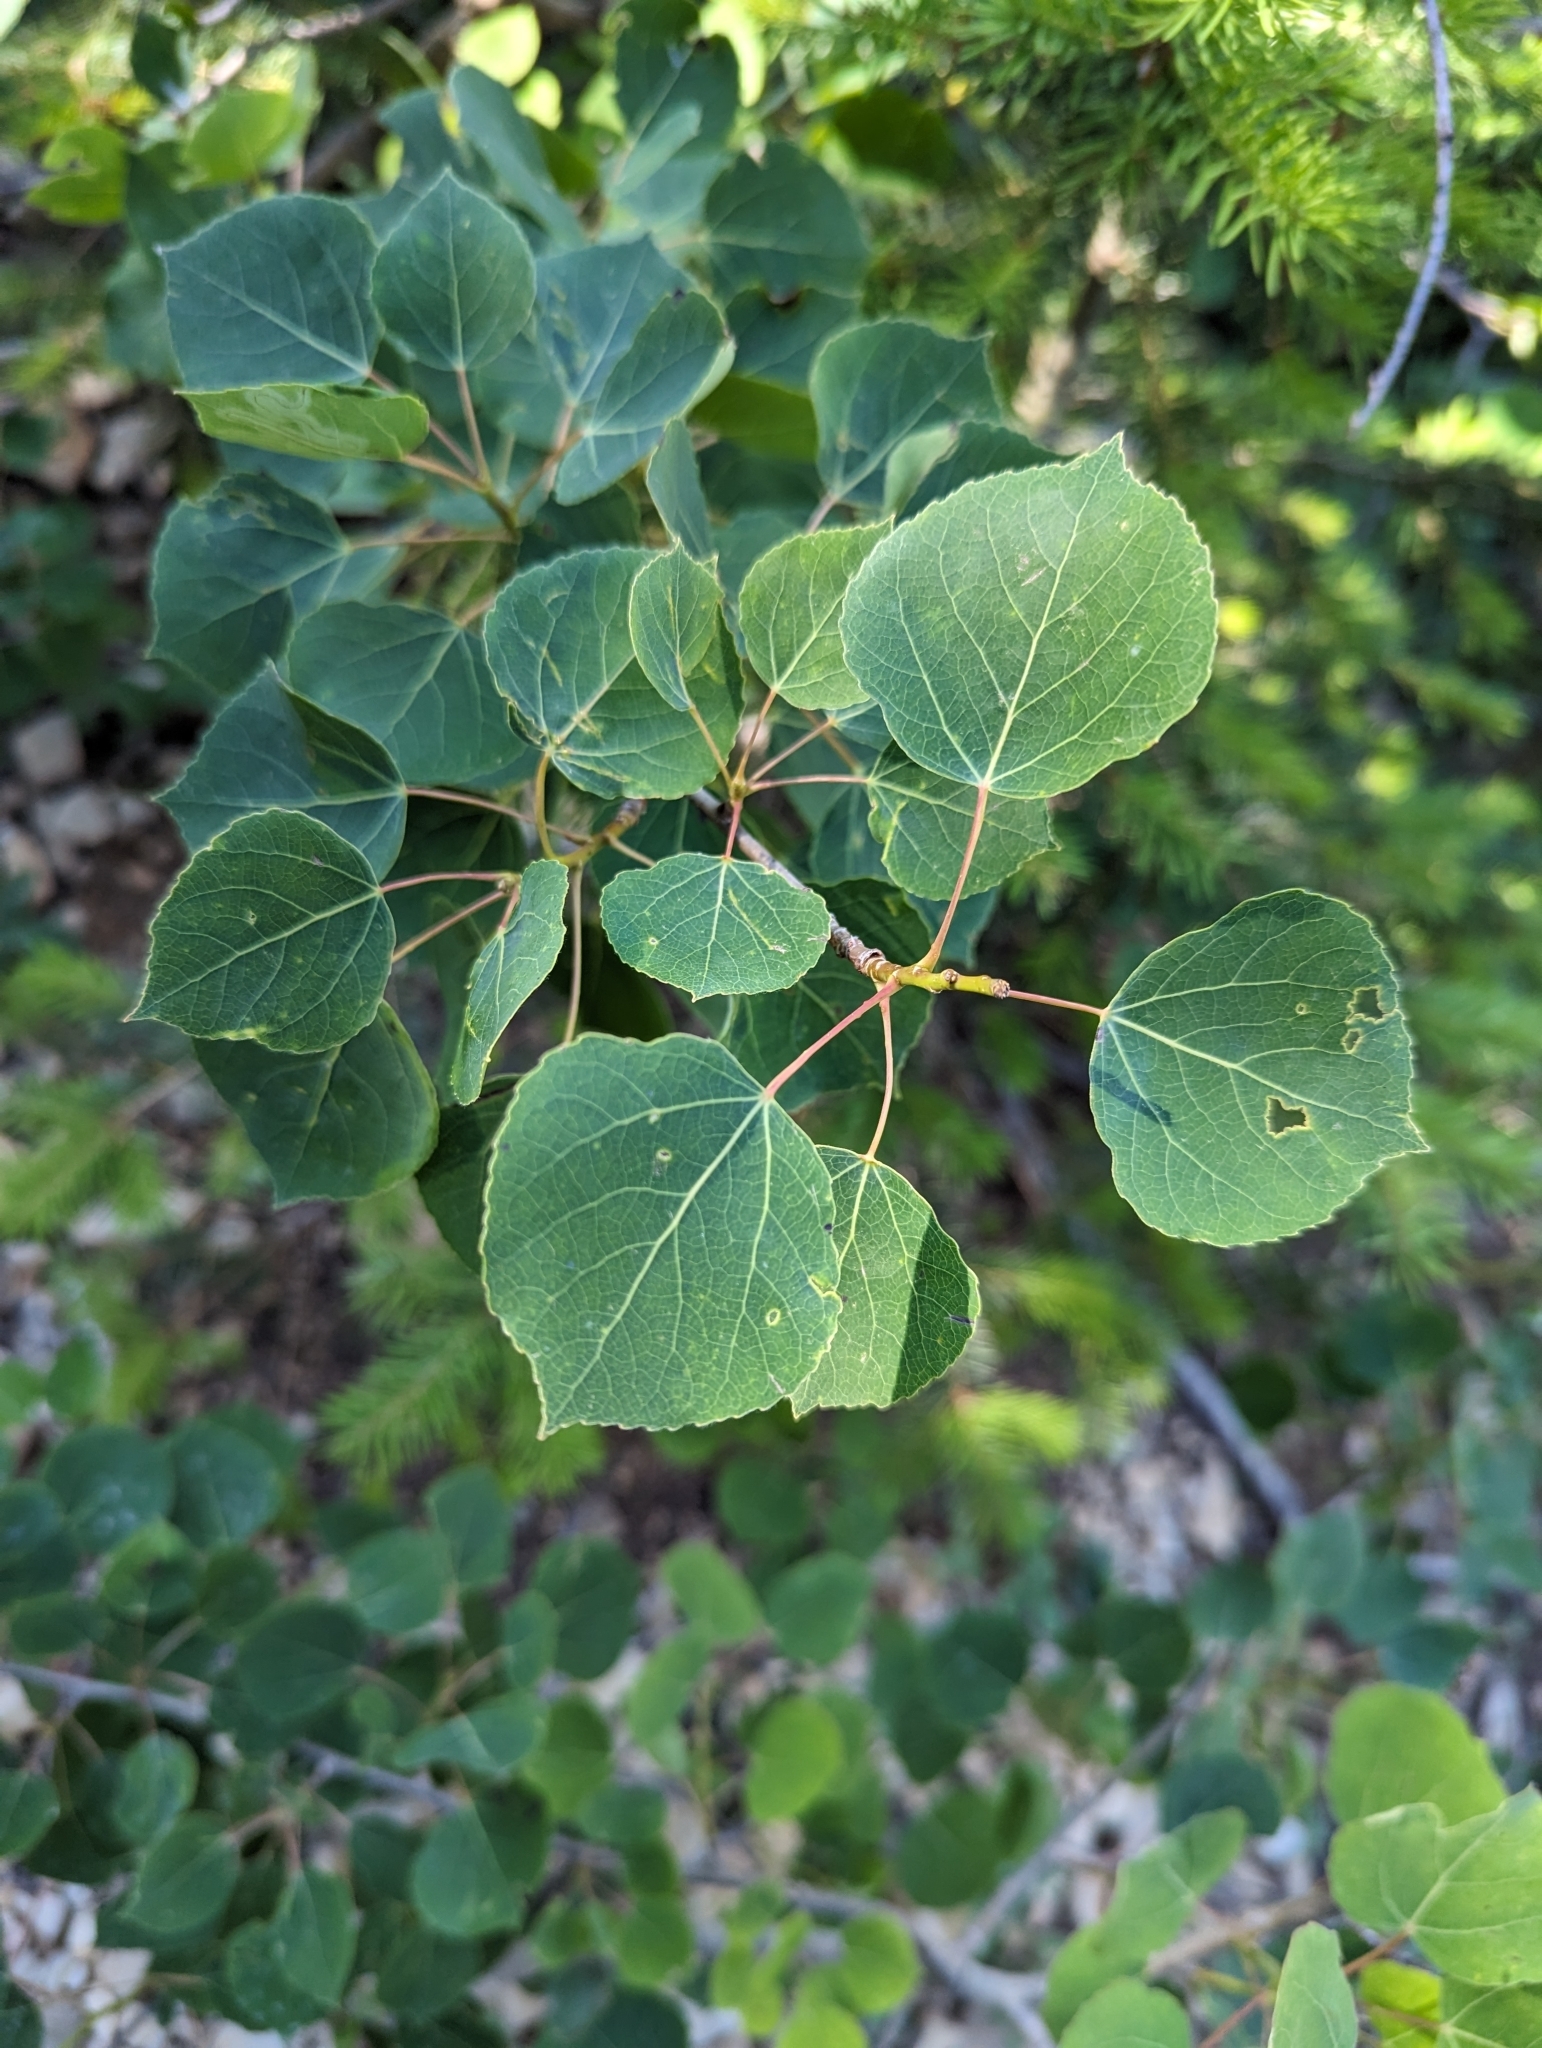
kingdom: Plantae
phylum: Tracheophyta
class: Magnoliopsida
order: Malpighiales
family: Salicaceae
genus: Populus
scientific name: Populus tremuloides
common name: Quaking aspen
